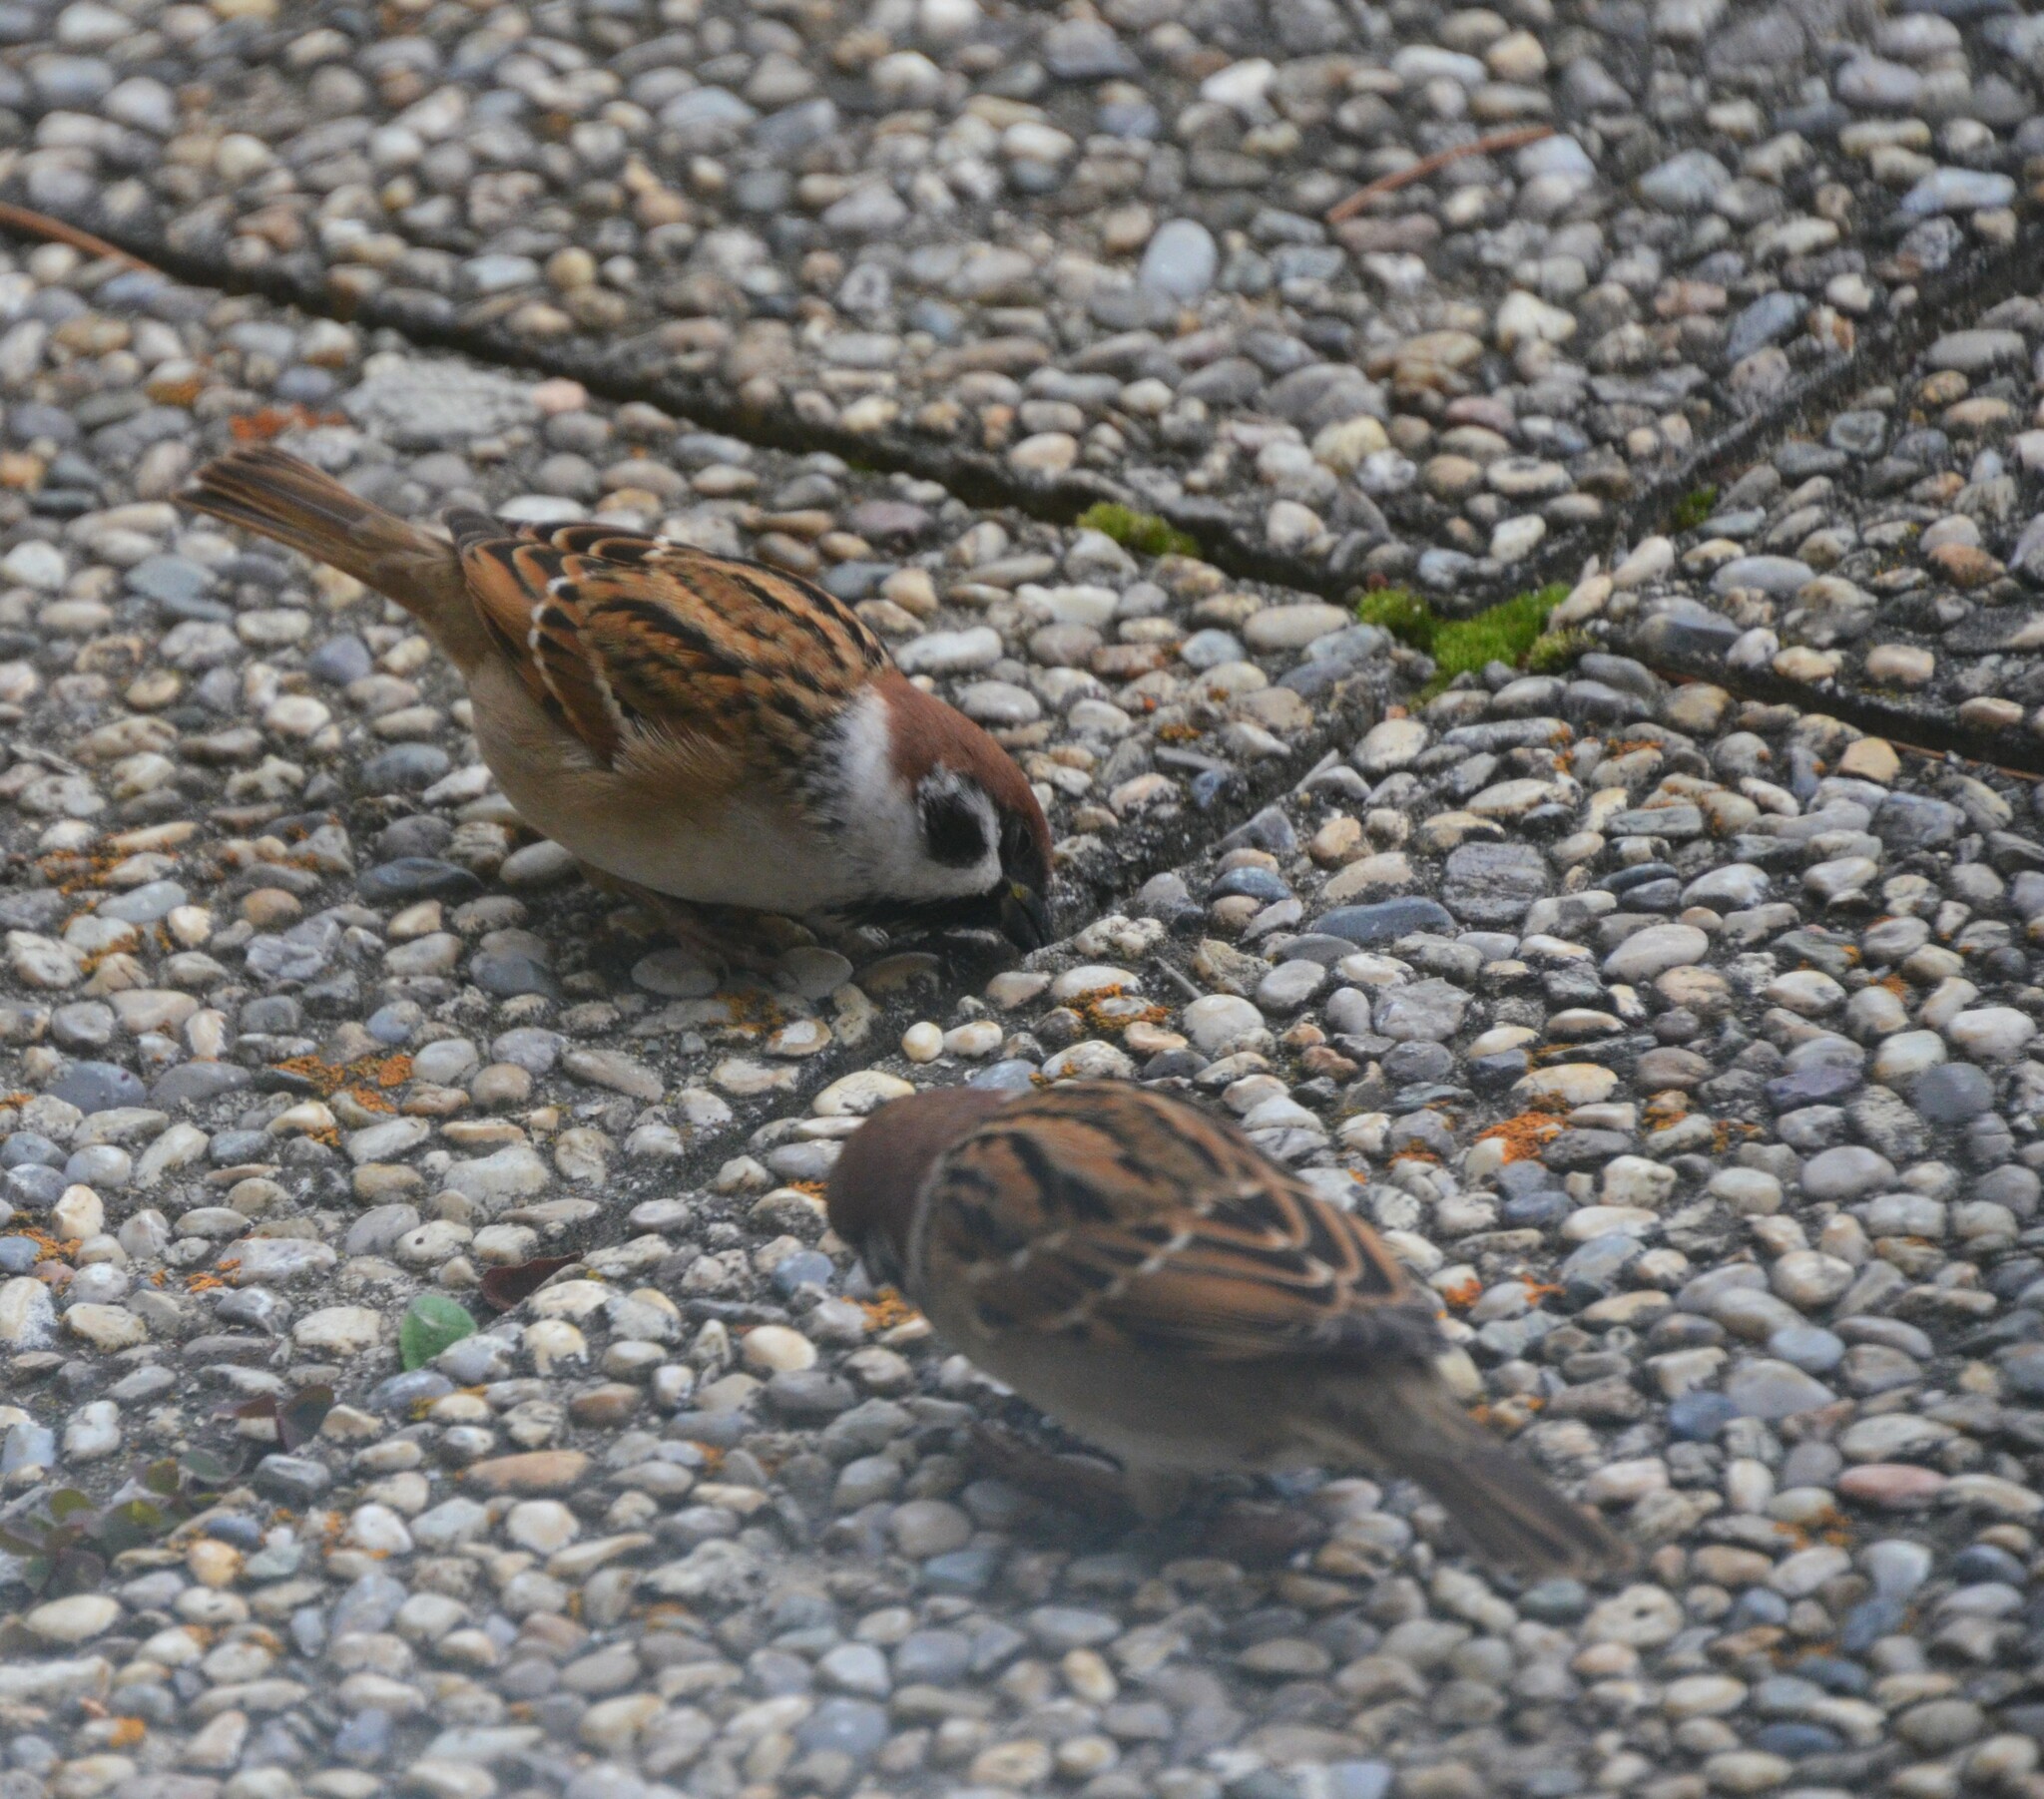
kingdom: Animalia
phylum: Chordata
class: Aves
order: Passeriformes
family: Passeridae
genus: Passer
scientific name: Passer montanus
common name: Eurasian tree sparrow
